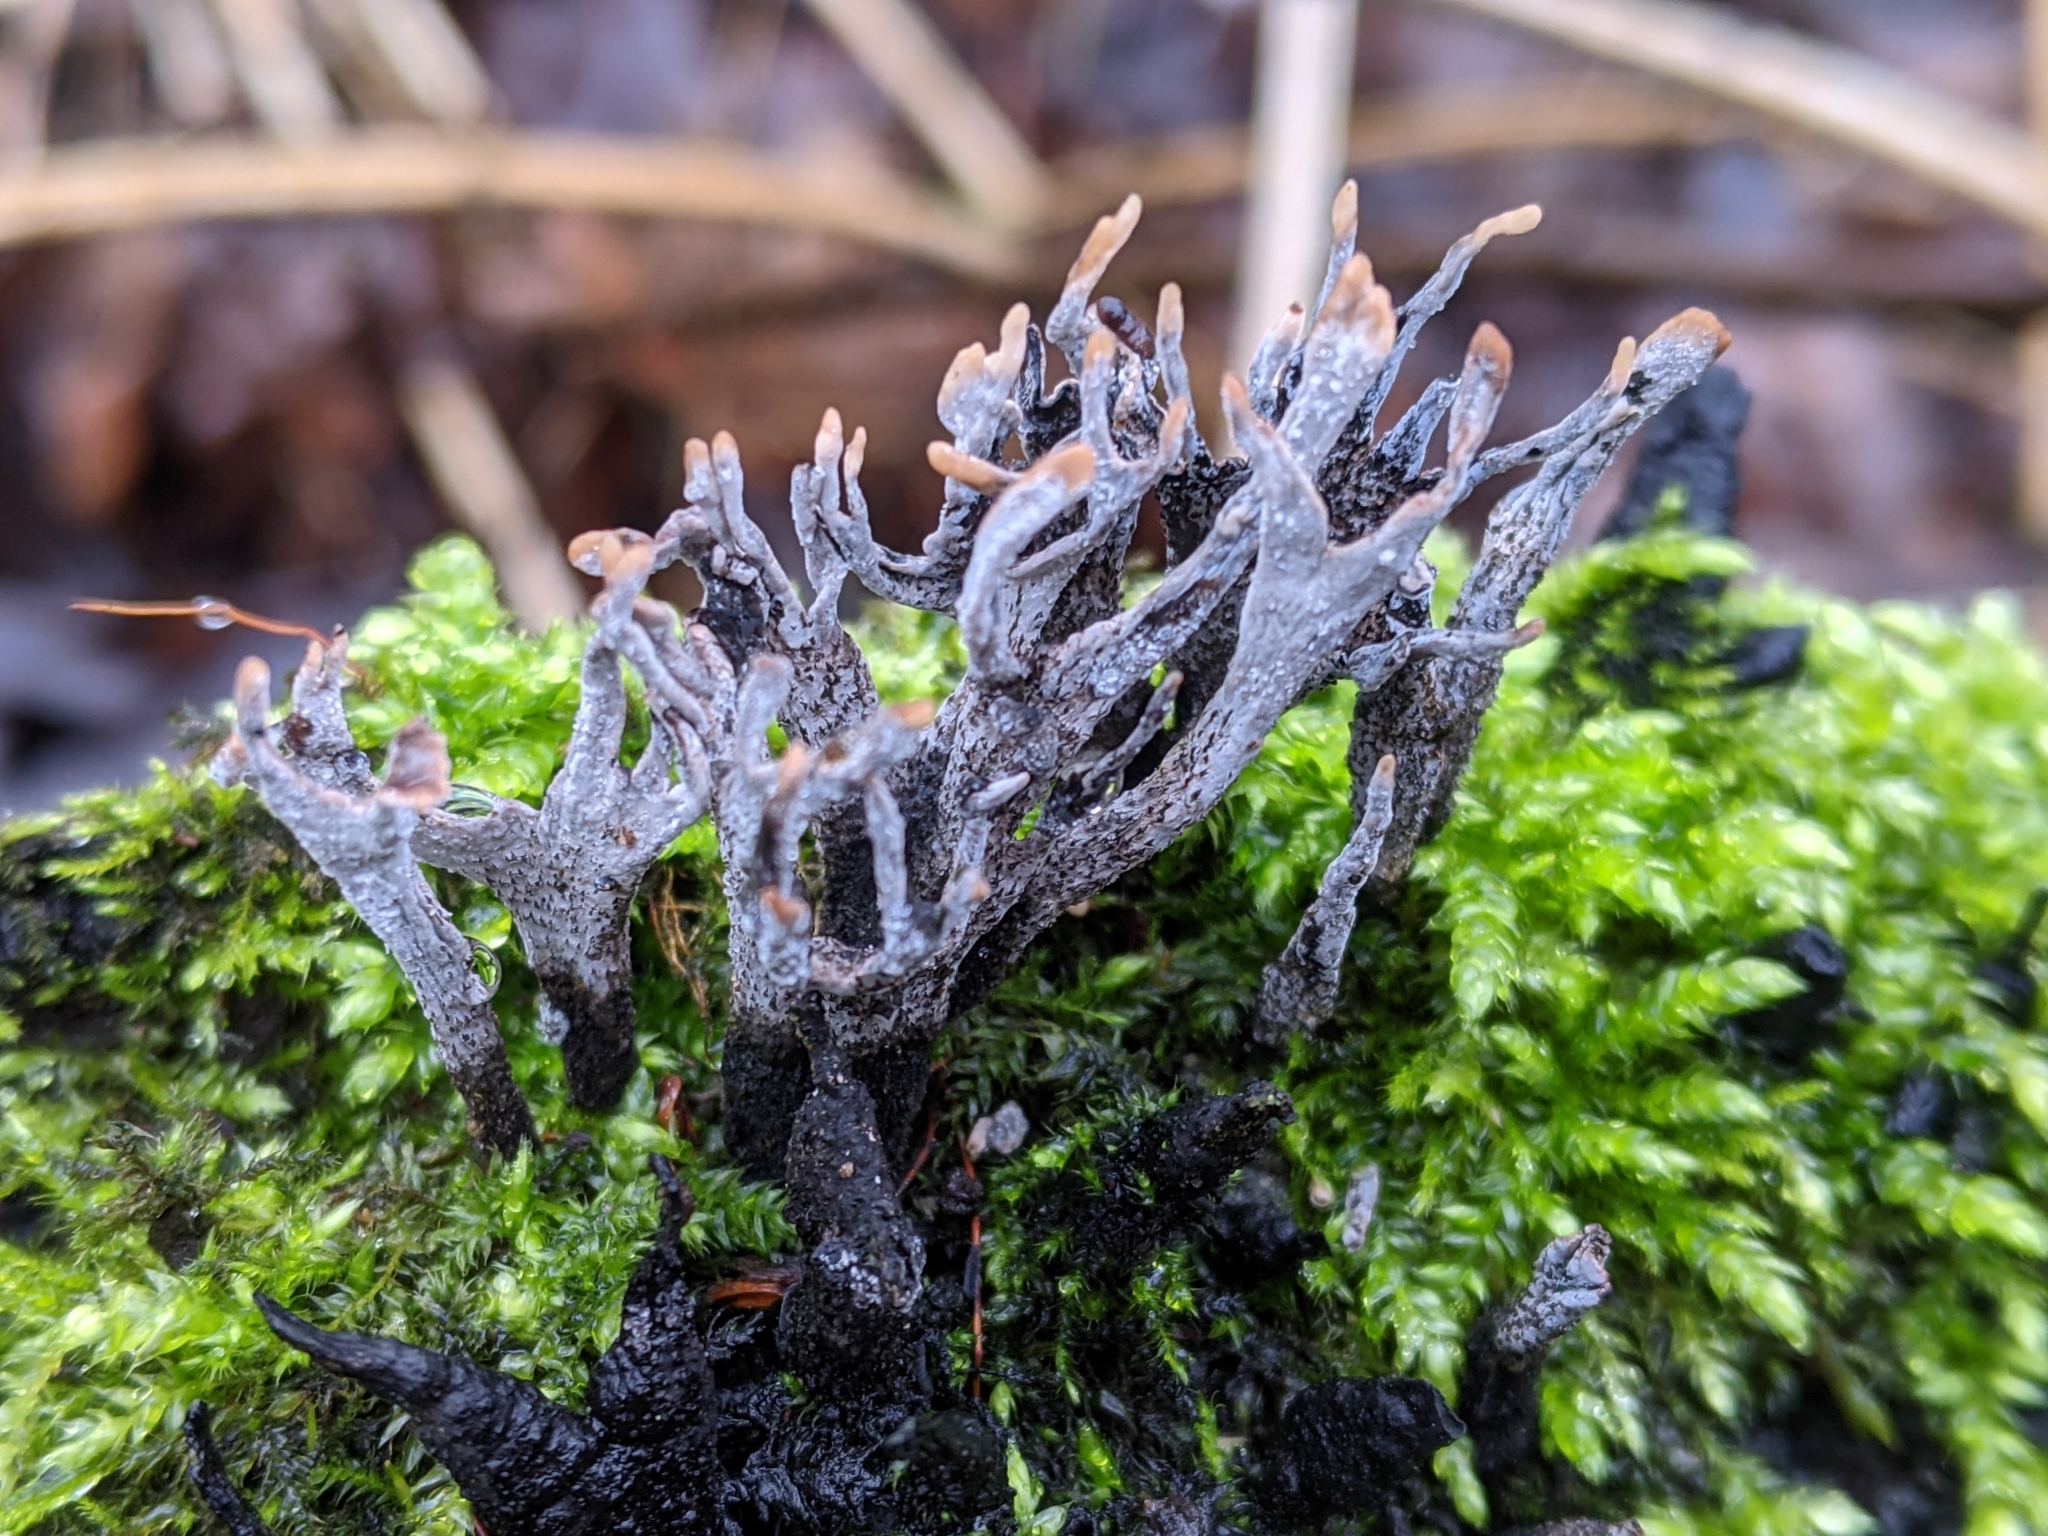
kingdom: Fungi
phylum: Ascomycota
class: Sordariomycetes
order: Xylariales
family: Xylariaceae
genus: Xylaria
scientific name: Xylaria hypoxylon
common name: Candle-snuff fungus
